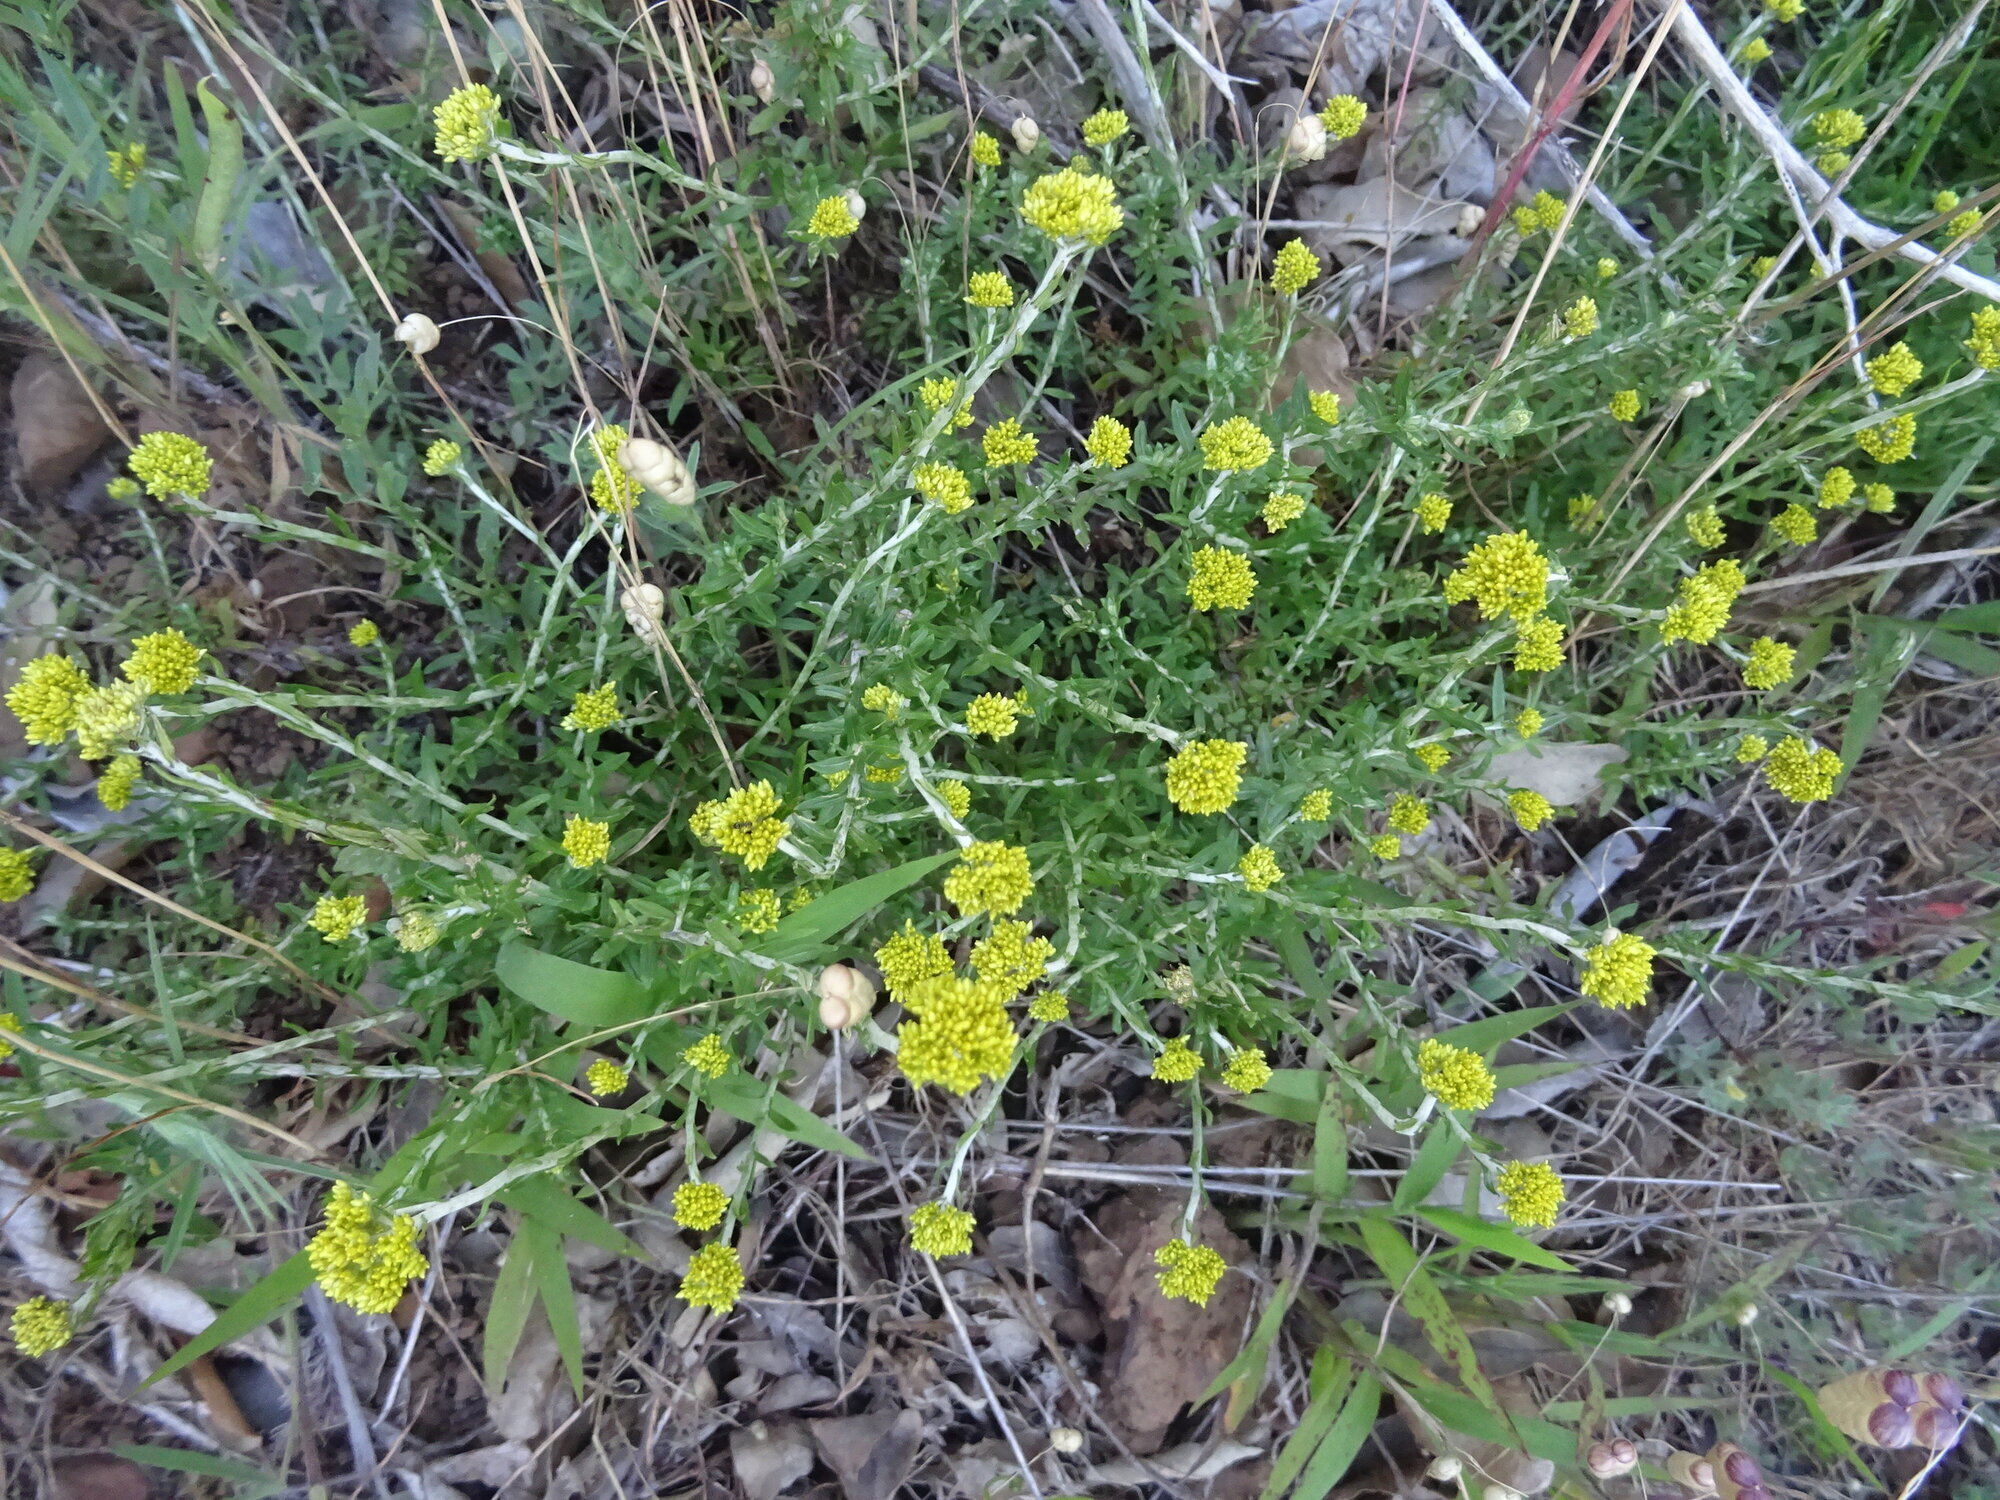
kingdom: Plantae
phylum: Tracheophyta
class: Magnoliopsida
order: Asterales
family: Asteraceae
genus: Helichrysum
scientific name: Helichrysum cymosum
